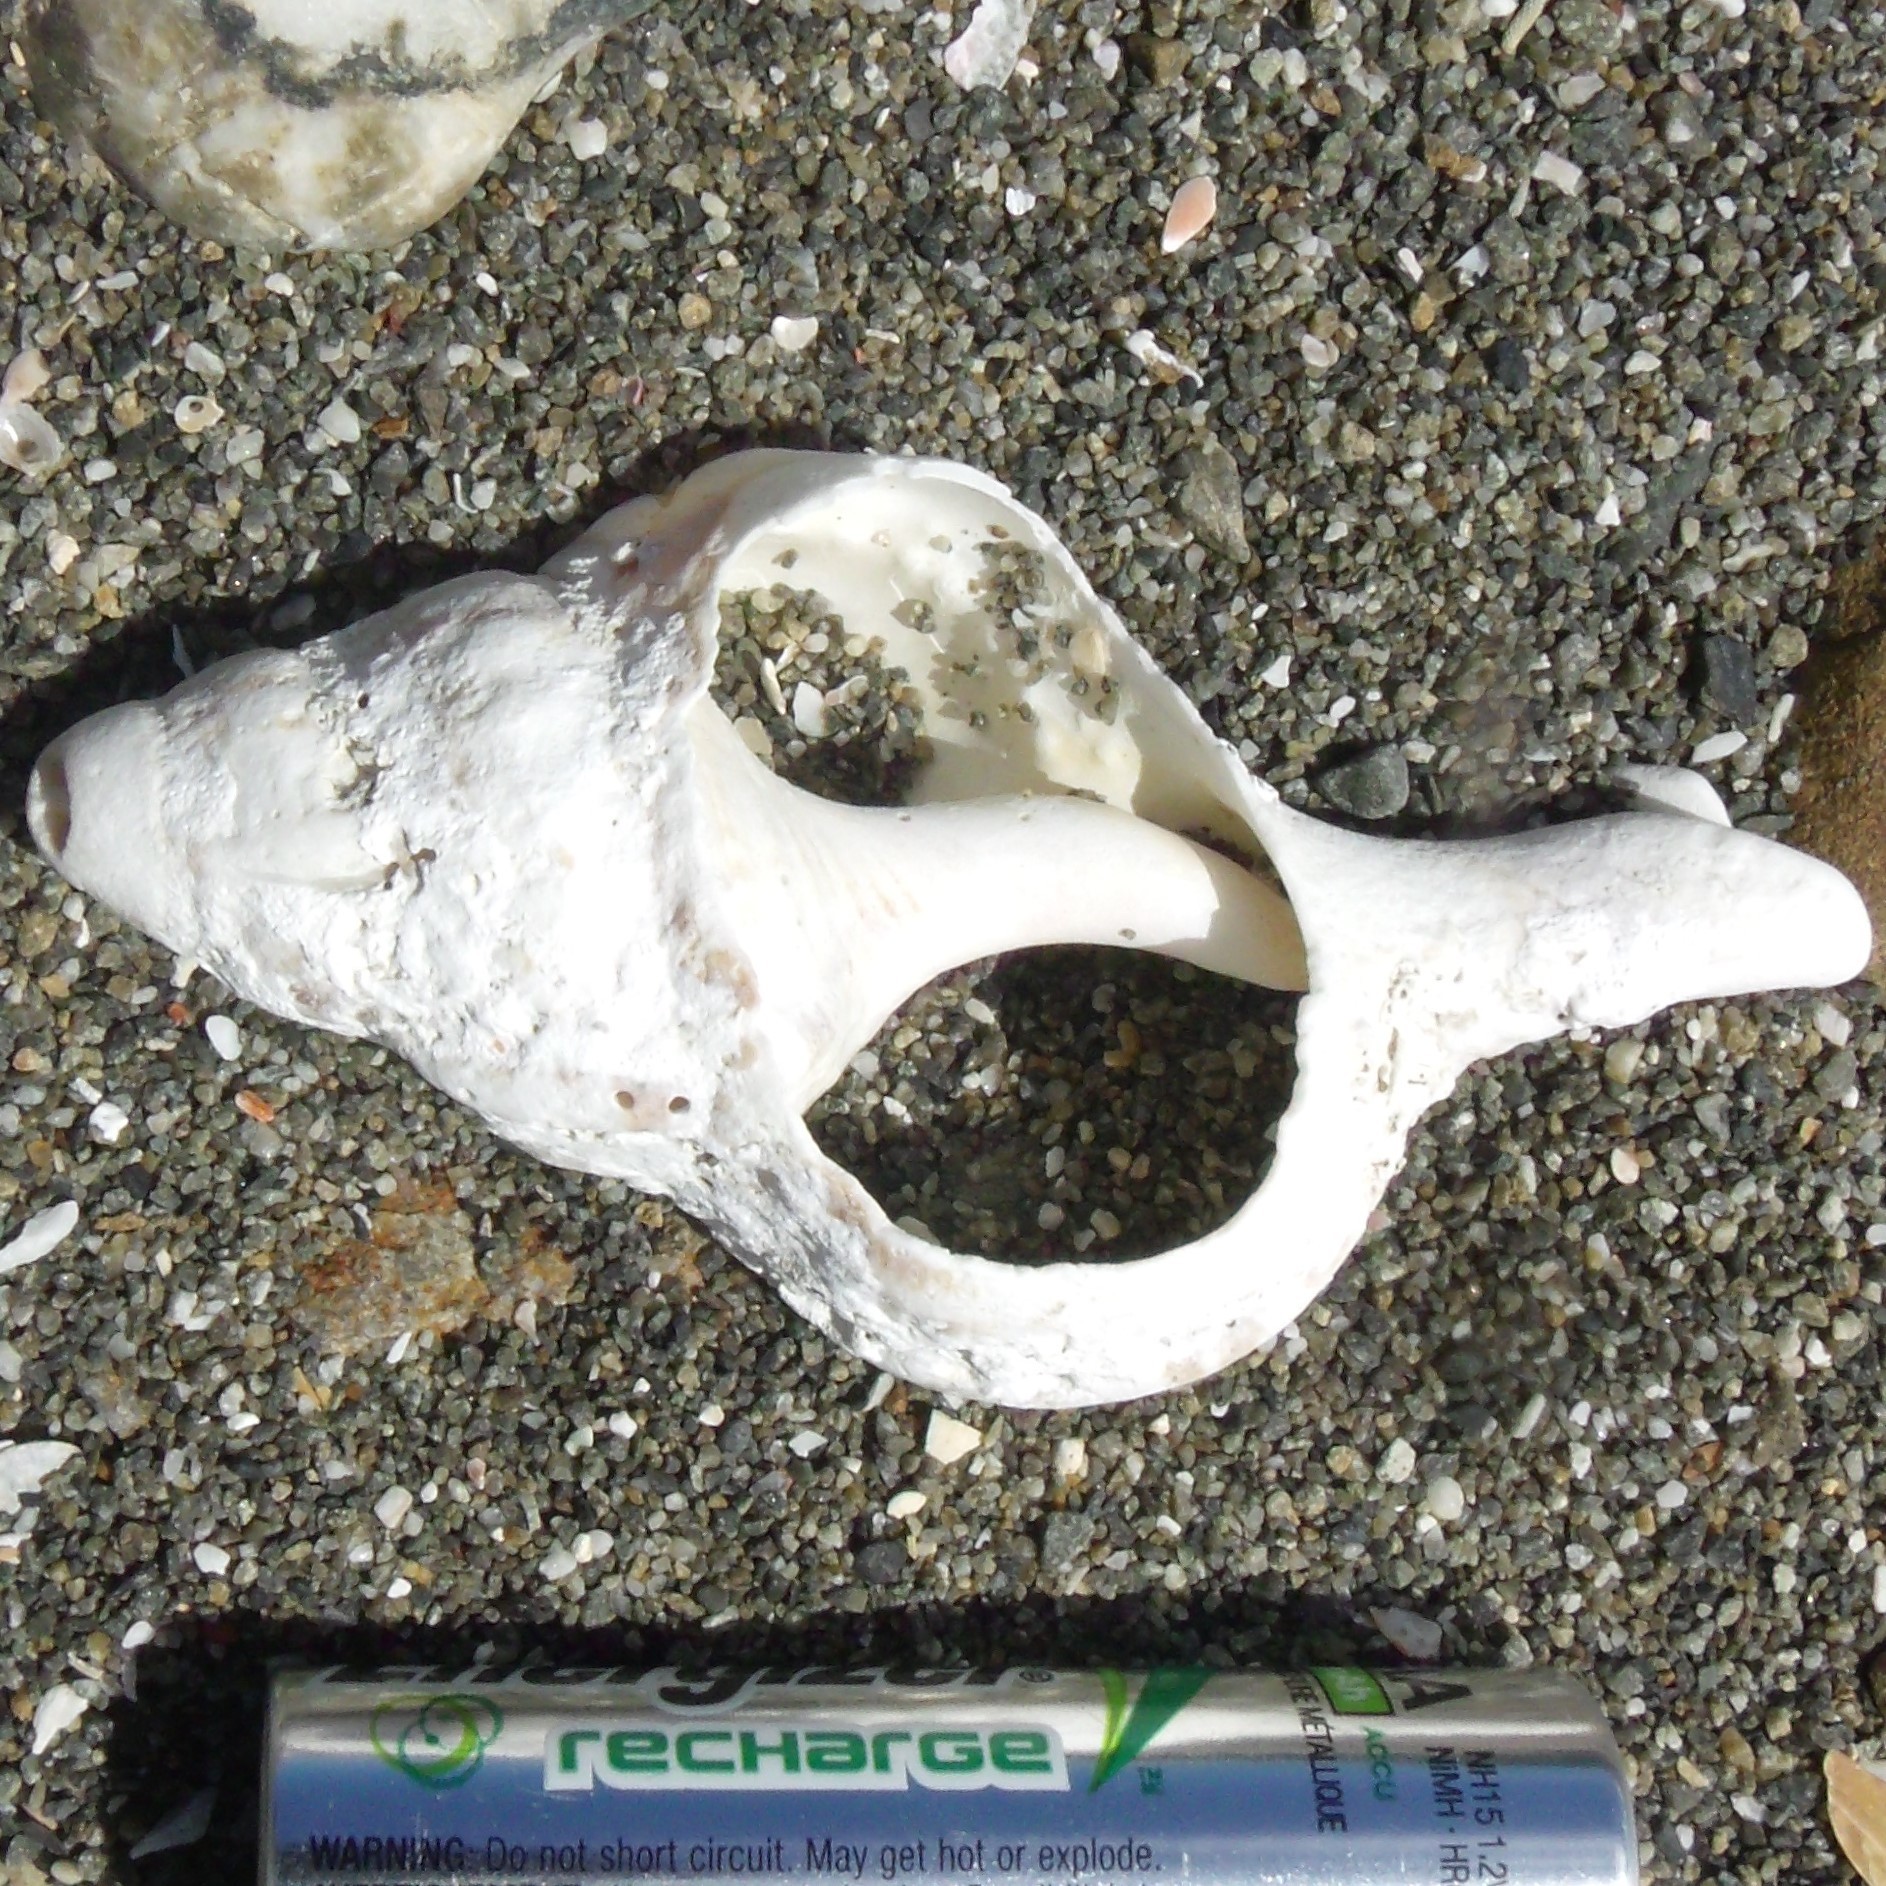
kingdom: Animalia
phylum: Mollusca
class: Gastropoda
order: Littorinimorpha
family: Ranellidae
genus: Ranella
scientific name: Ranella australasia
